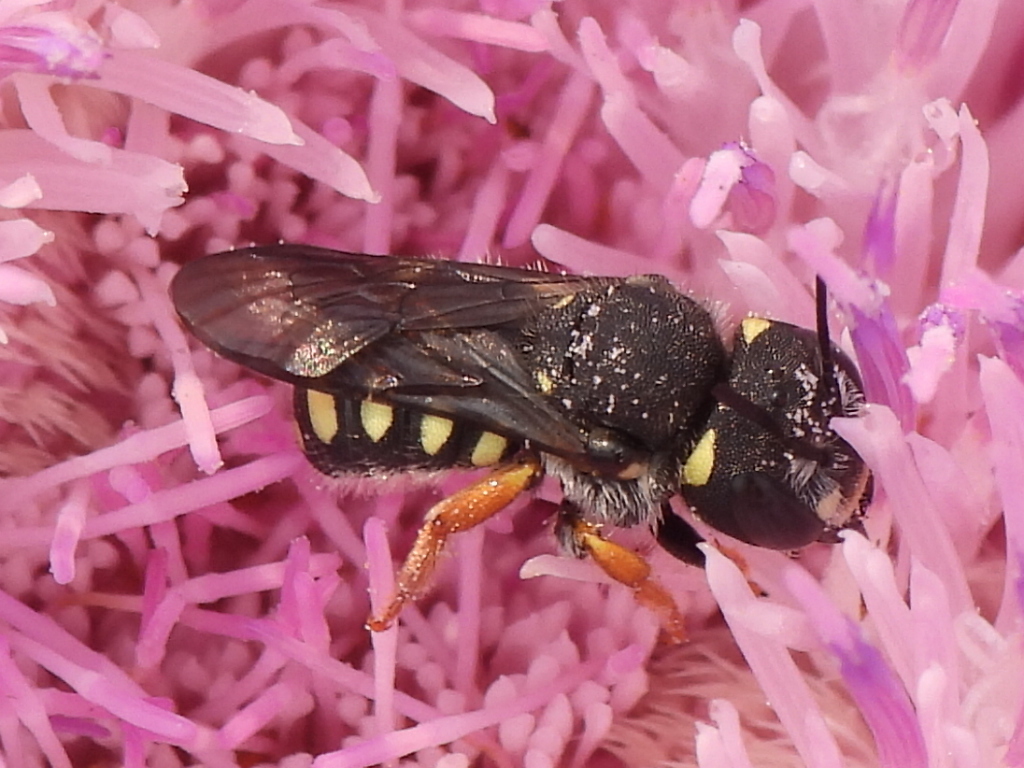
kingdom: Animalia
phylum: Arthropoda
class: Insecta
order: Hymenoptera
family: Megachilidae
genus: Pseudoanthidium
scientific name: Pseudoanthidium nanum
